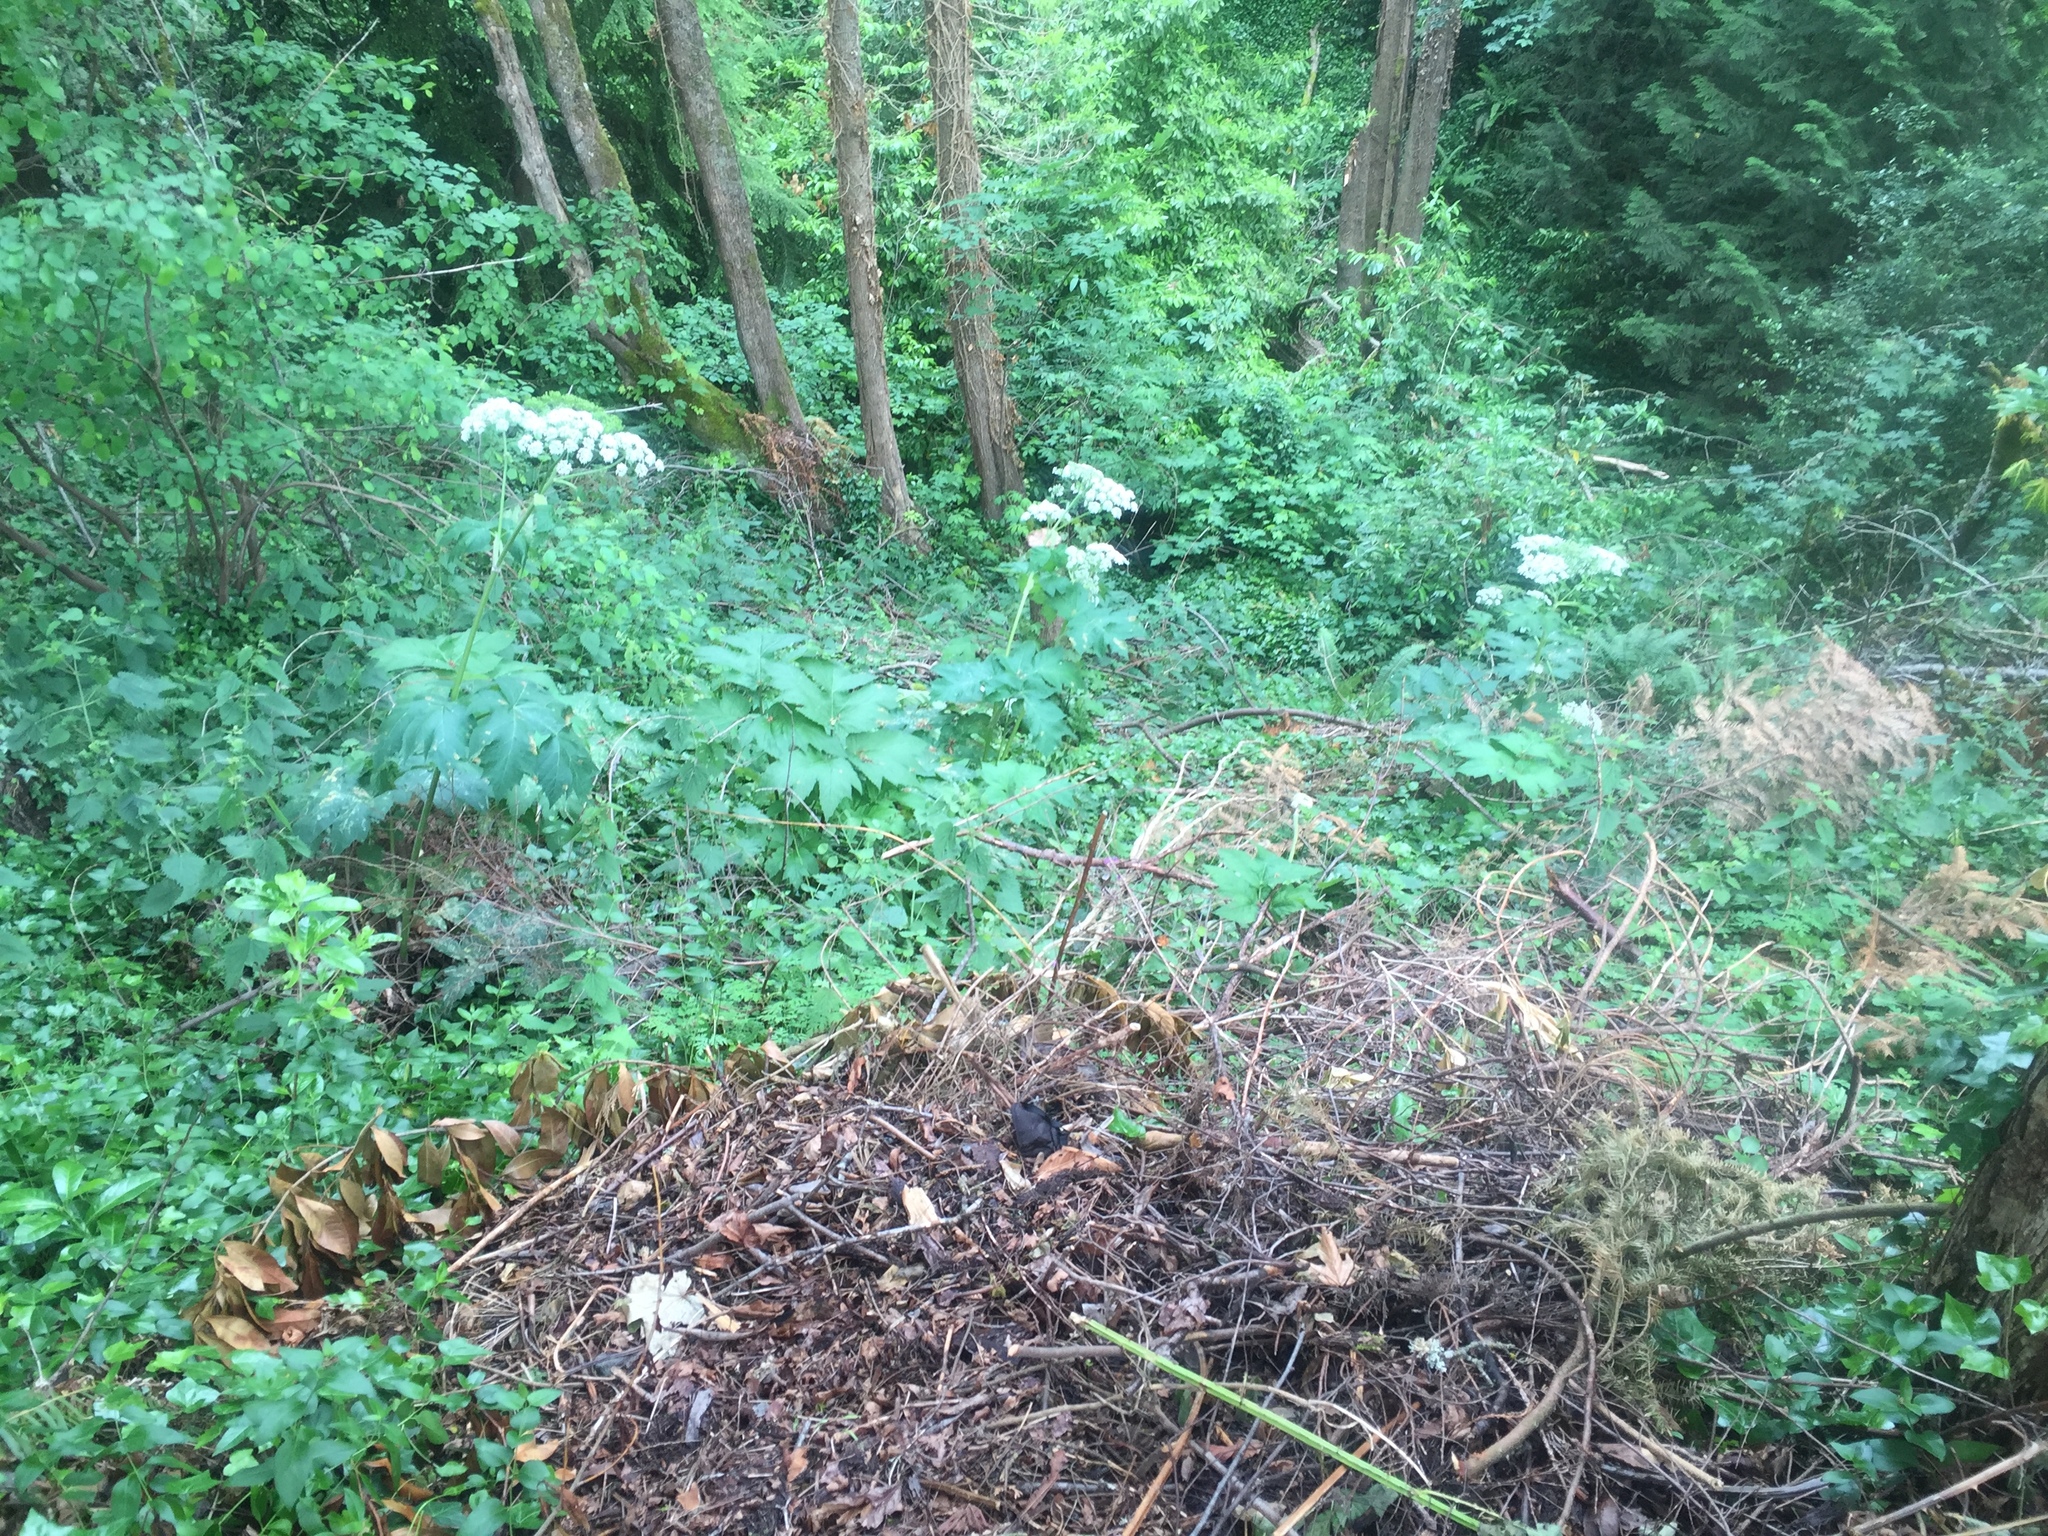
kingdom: Plantae
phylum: Tracheophyta
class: Magnoliopsida
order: Apiales
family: Apiaceae
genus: Heracleum
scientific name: Heracleum maximum
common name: American cow parsnip
